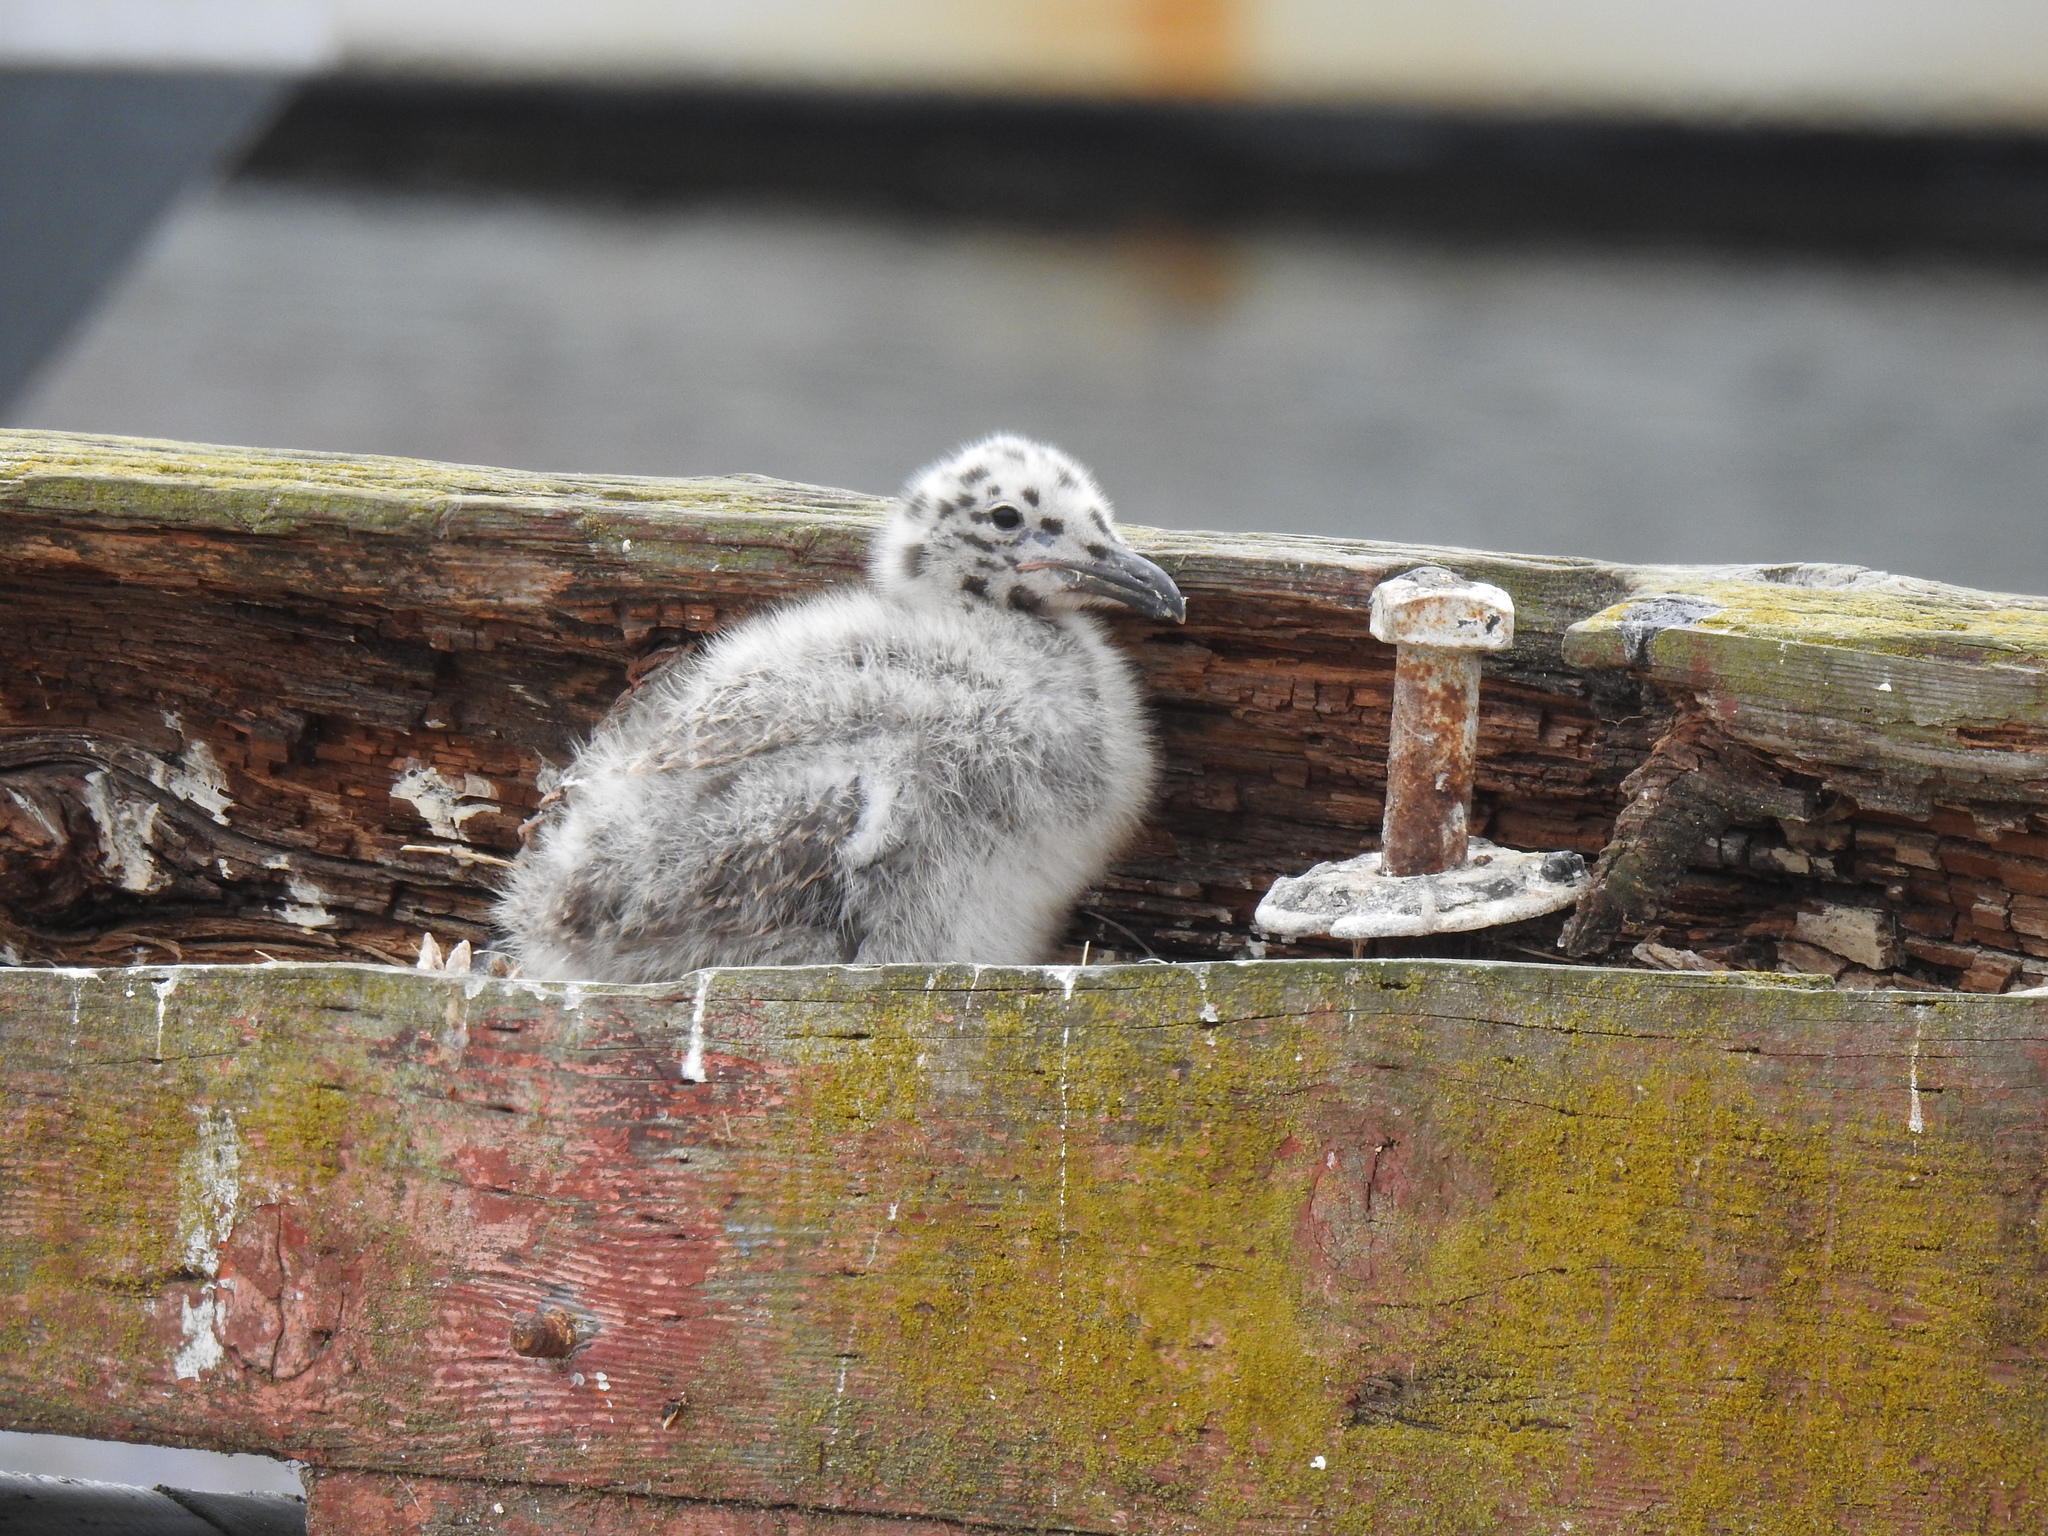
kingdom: Animalia
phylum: Chordata
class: Aves
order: Charadriiformes
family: Laridae
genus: Larus
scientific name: Larus occidentalis
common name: Western gull
